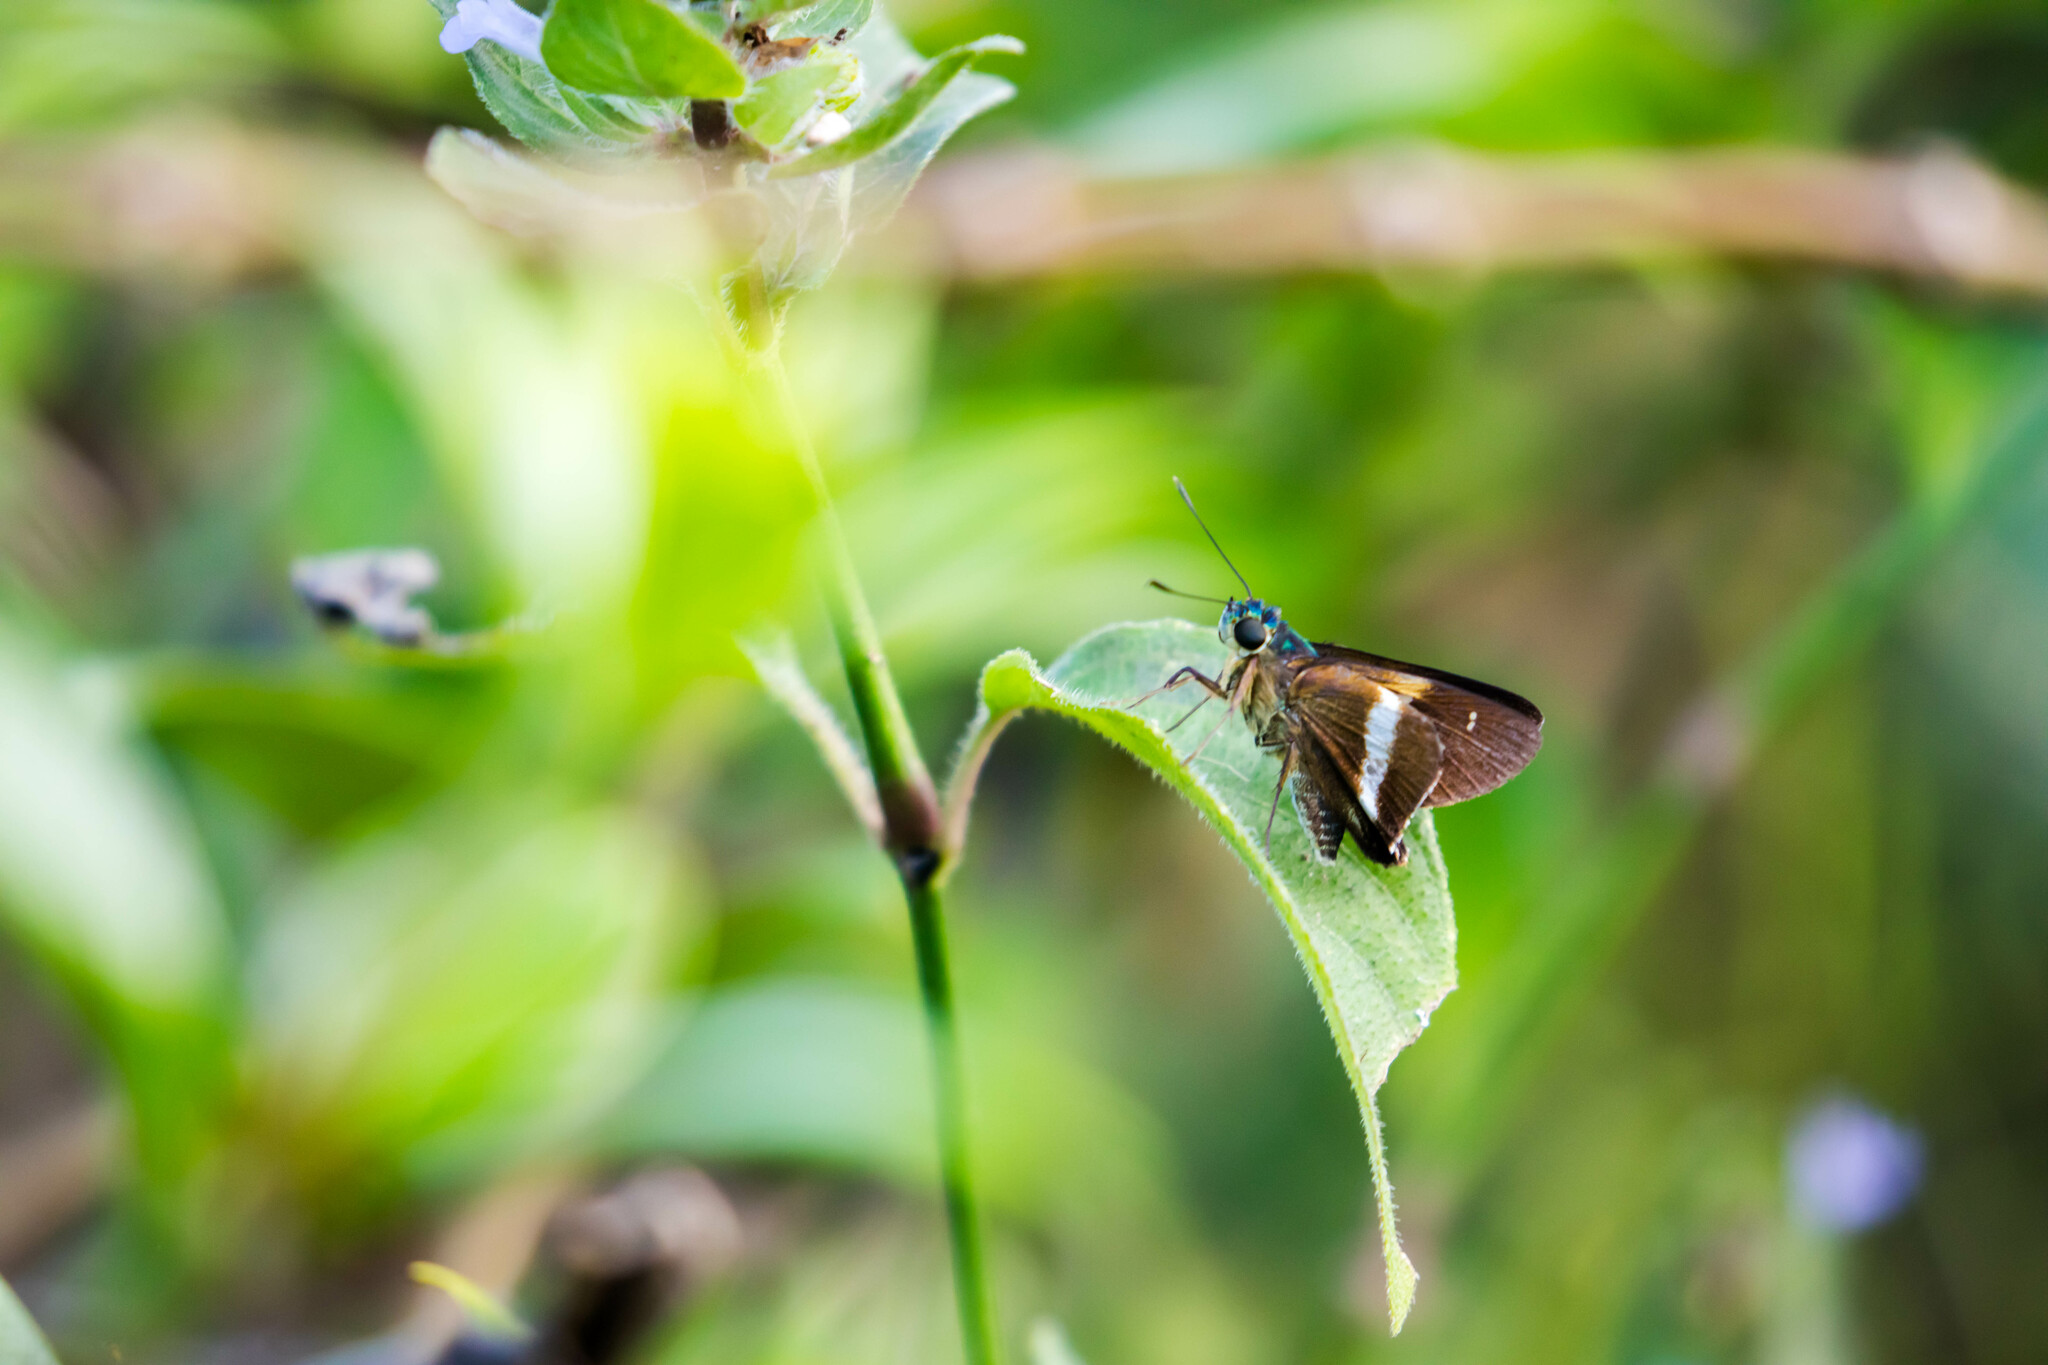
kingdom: Animalia
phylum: Arthropoda
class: Insecta
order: Lepidoptera
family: Hesperiidae
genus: Niconiades
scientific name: Niconiades xanthaphes
